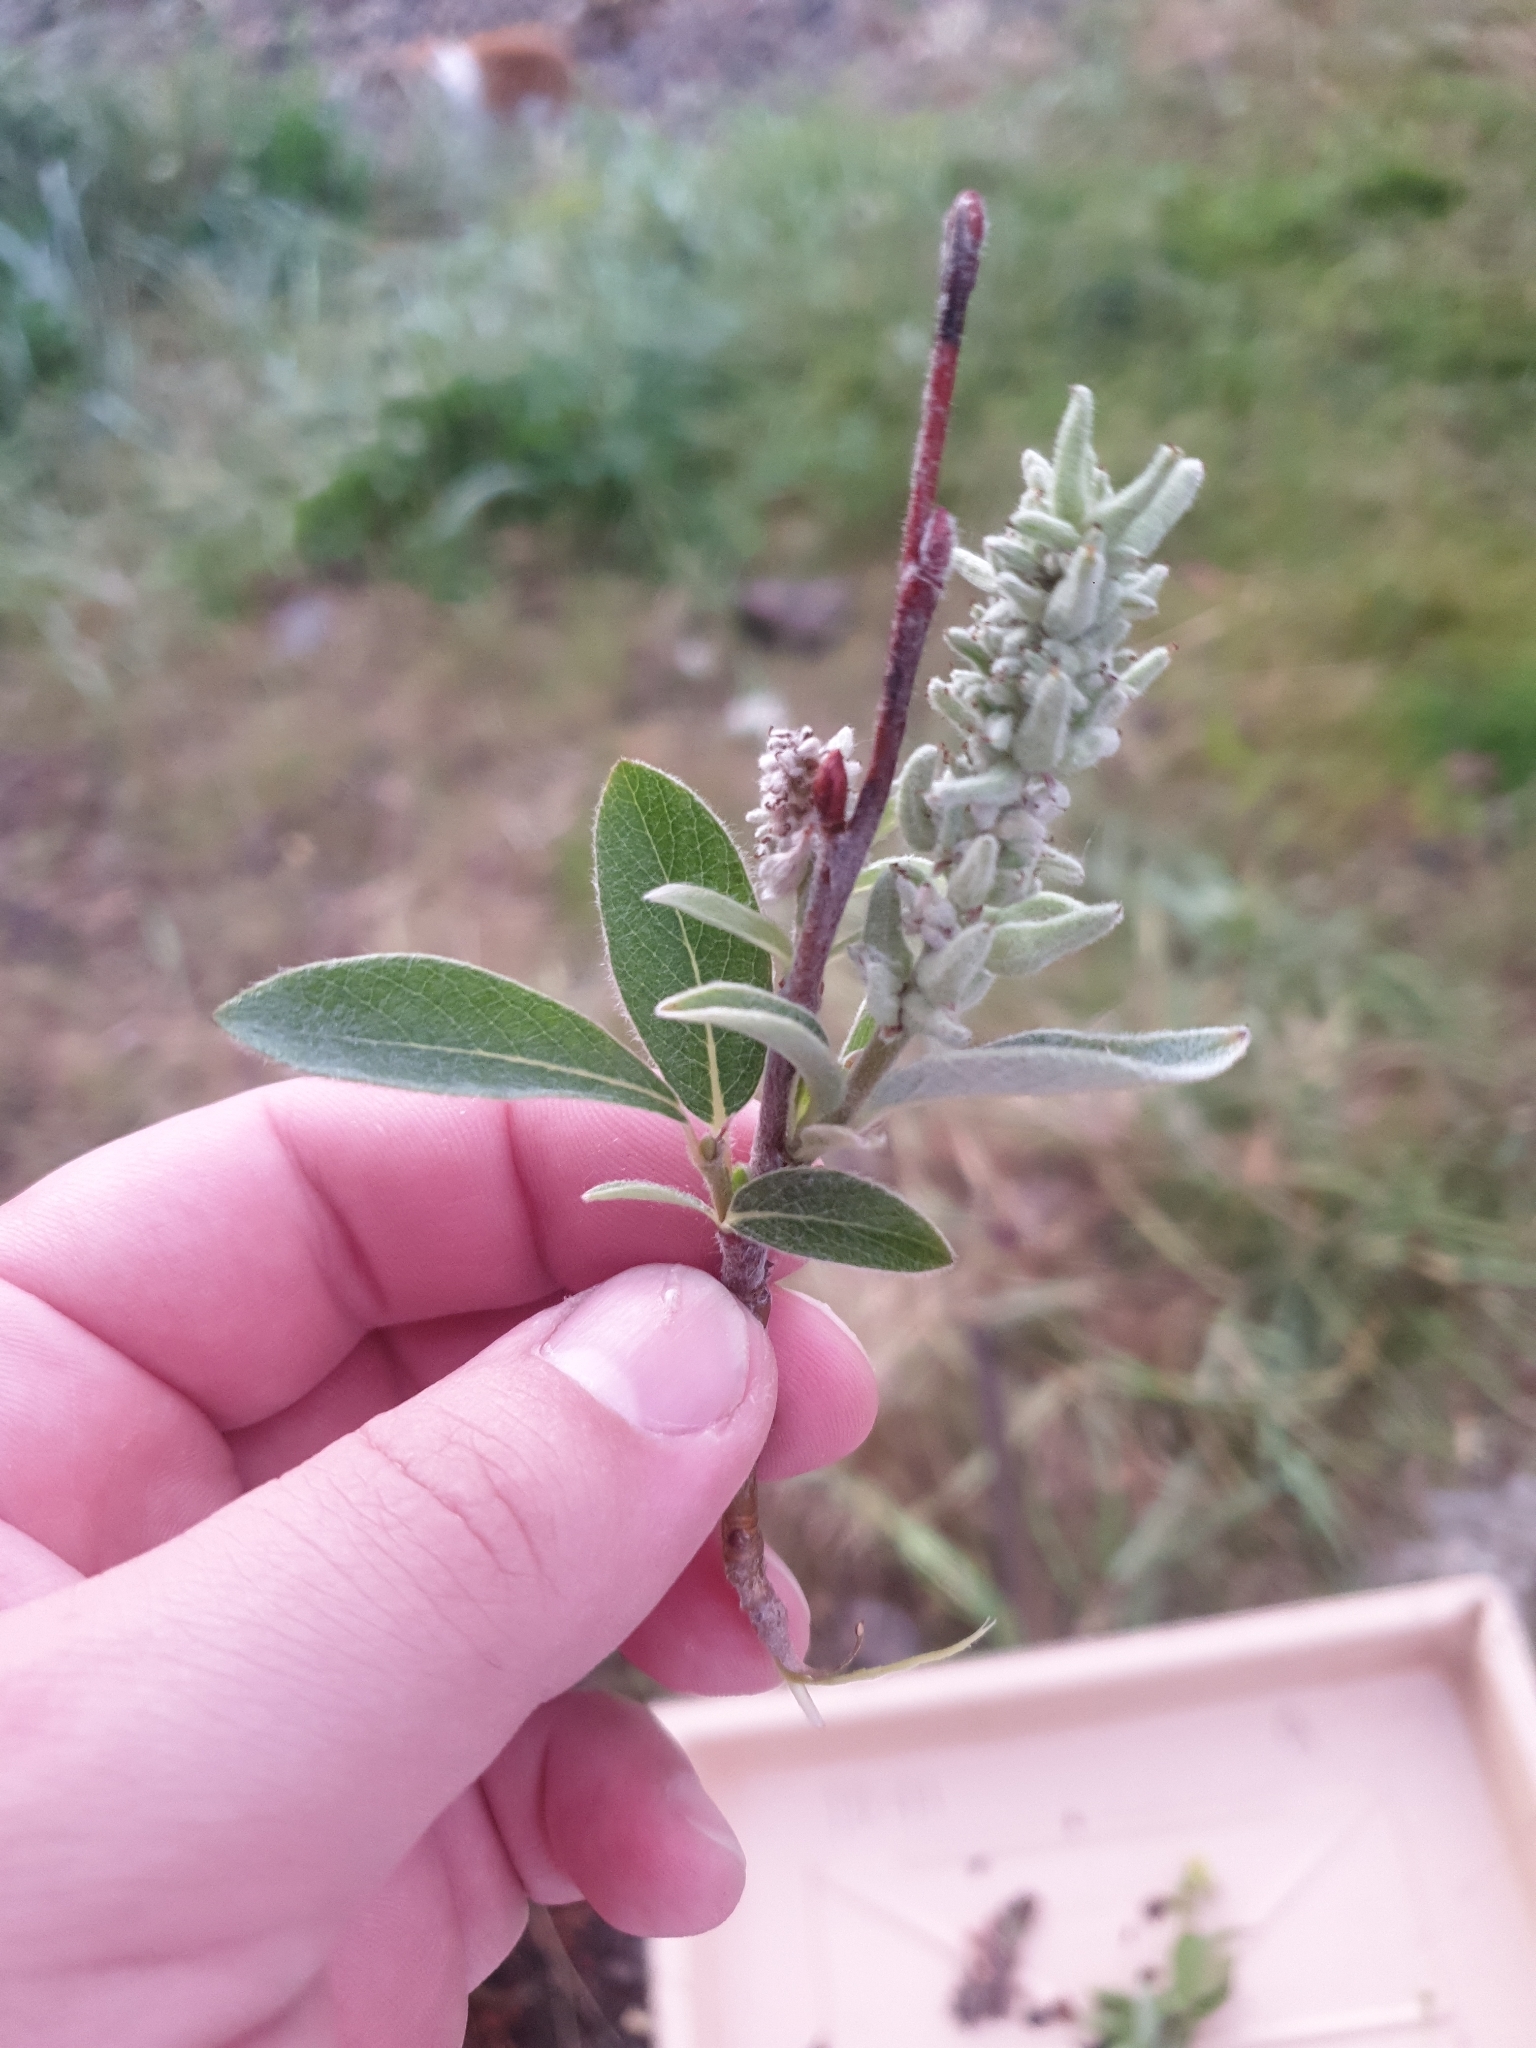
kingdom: Plantae
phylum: Tracheophyta
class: Magnoliopsida
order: Malpighiales
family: Salicaceae
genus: Salix
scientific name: Salix glauca
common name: Glaucous willow
